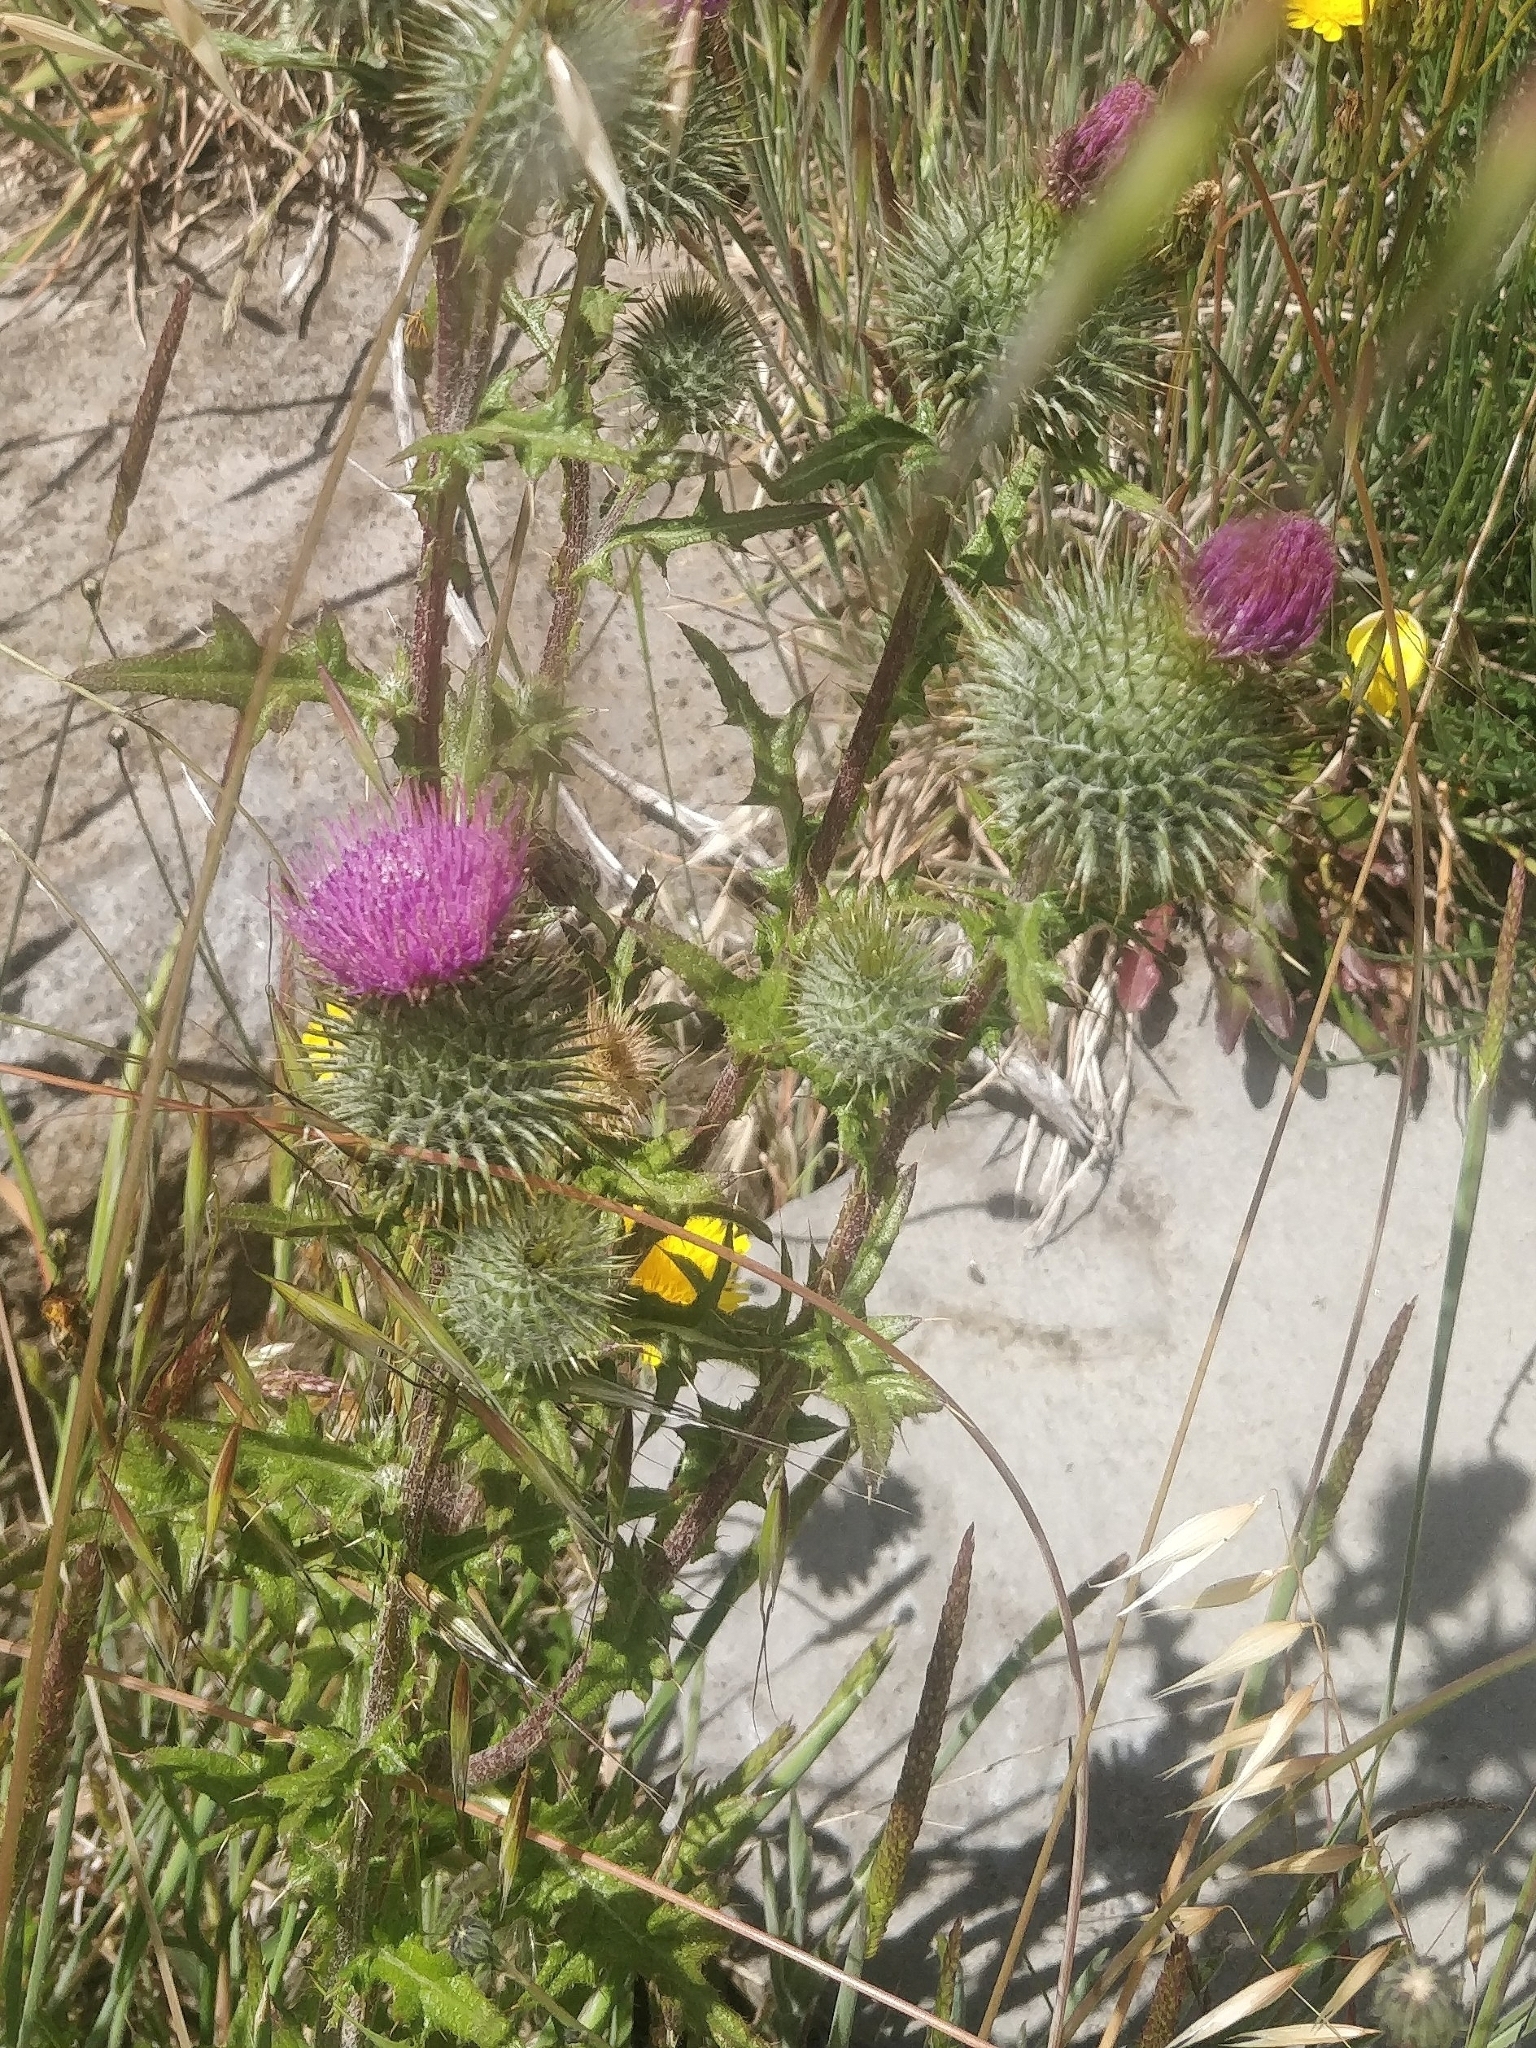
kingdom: Plantae
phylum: Tracheophyta
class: Magnoliopsida
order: Asterales
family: Asteraceae
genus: Cirsium
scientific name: Cirsium vulgare
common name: Bull thistle
